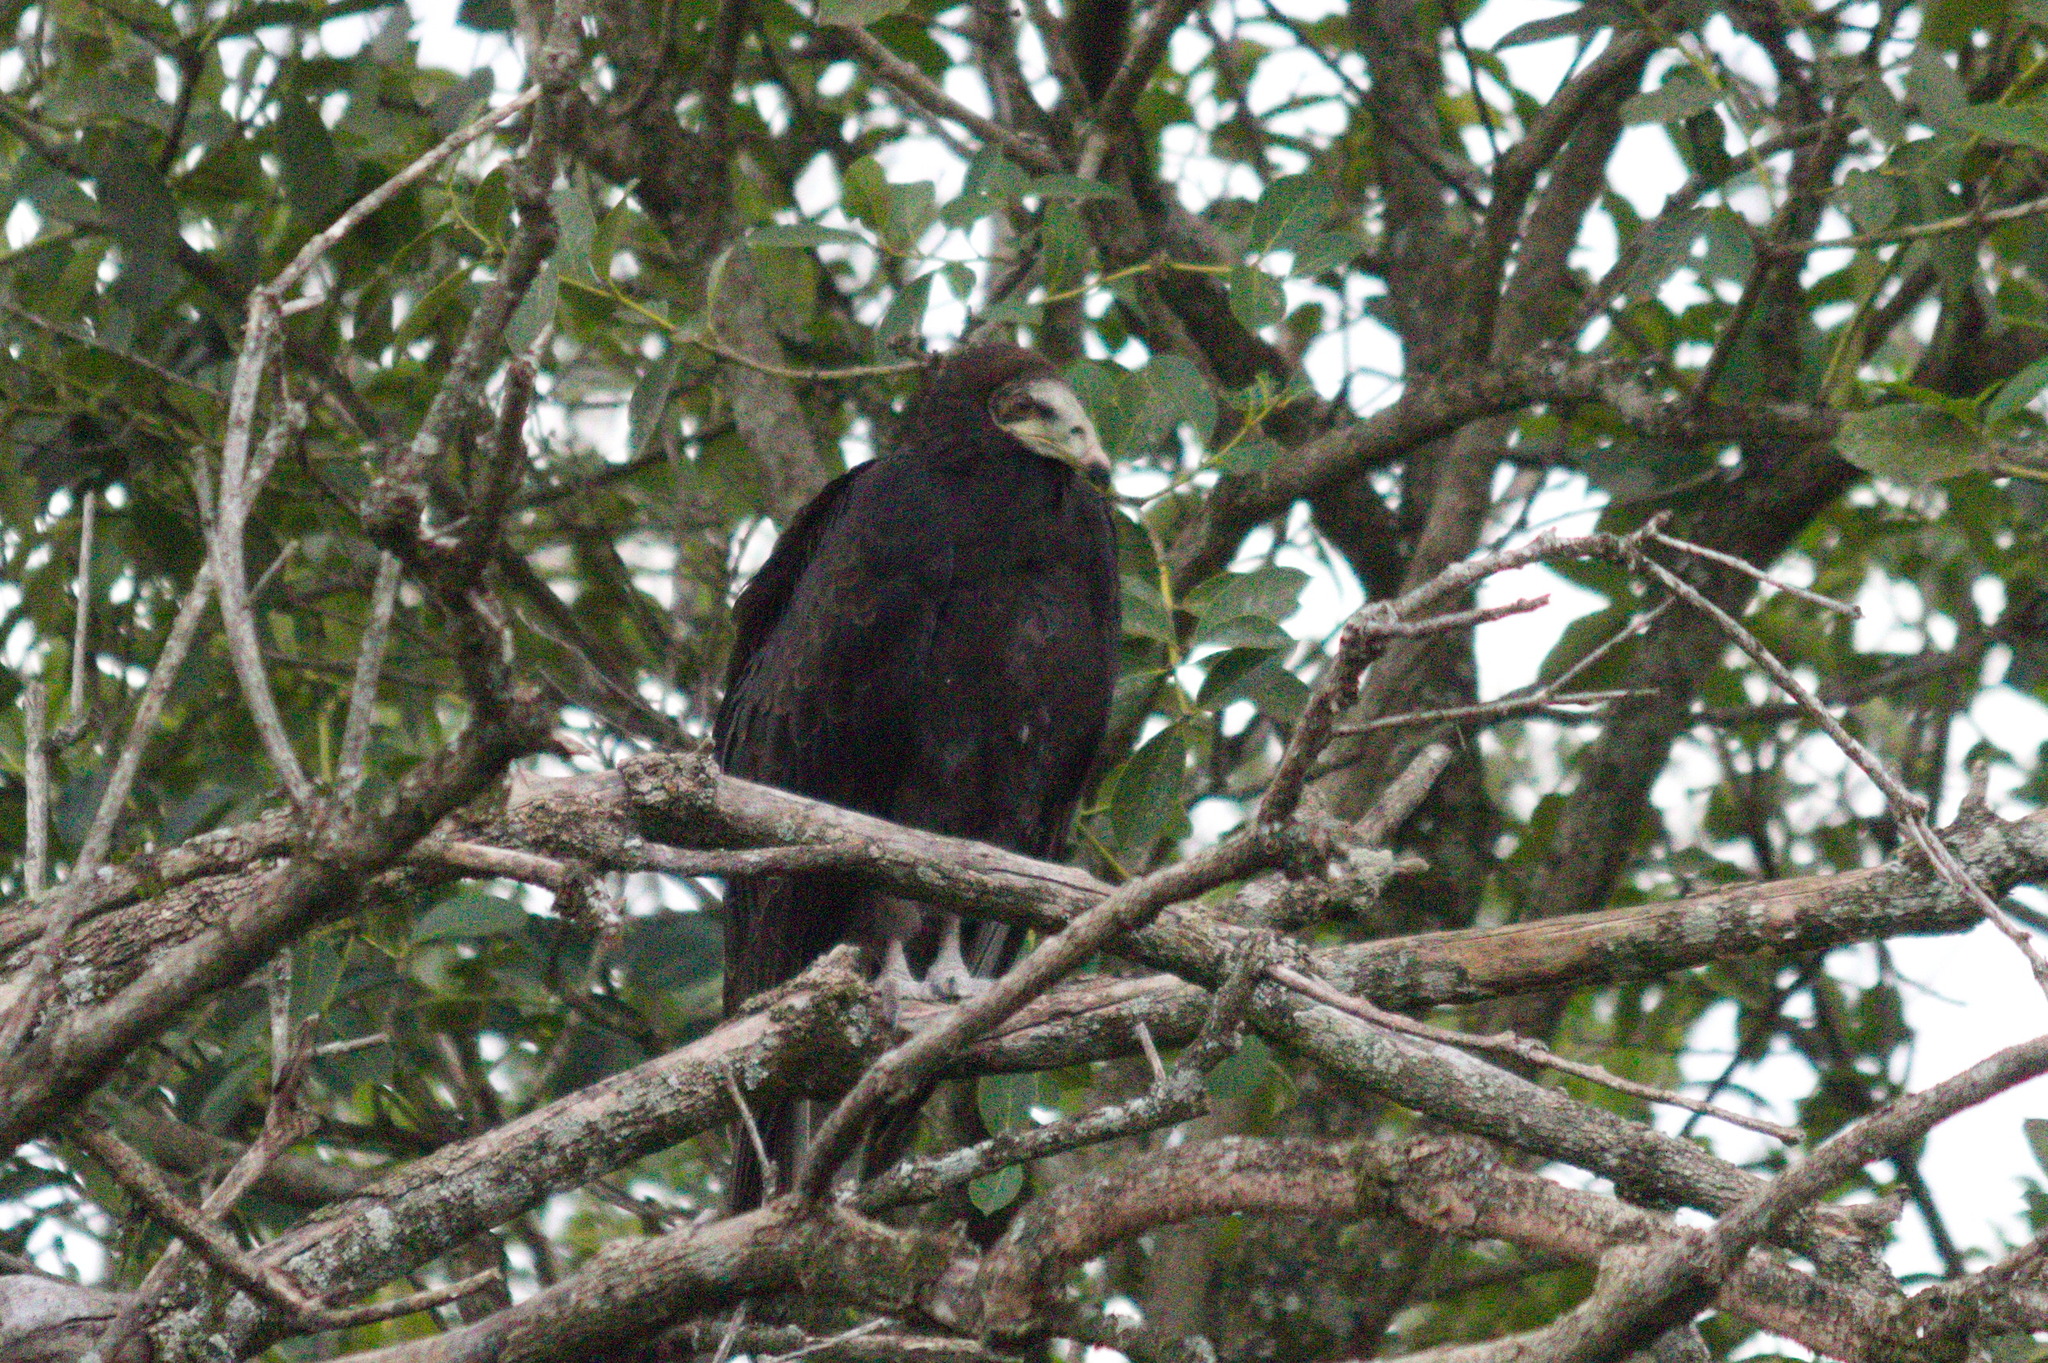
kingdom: Animalia
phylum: Chordata
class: Aves
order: Accipitriformes
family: Cathartidae
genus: Cathartes
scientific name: Cathartes burrovianus
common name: Lesser yellow-headed vulture
